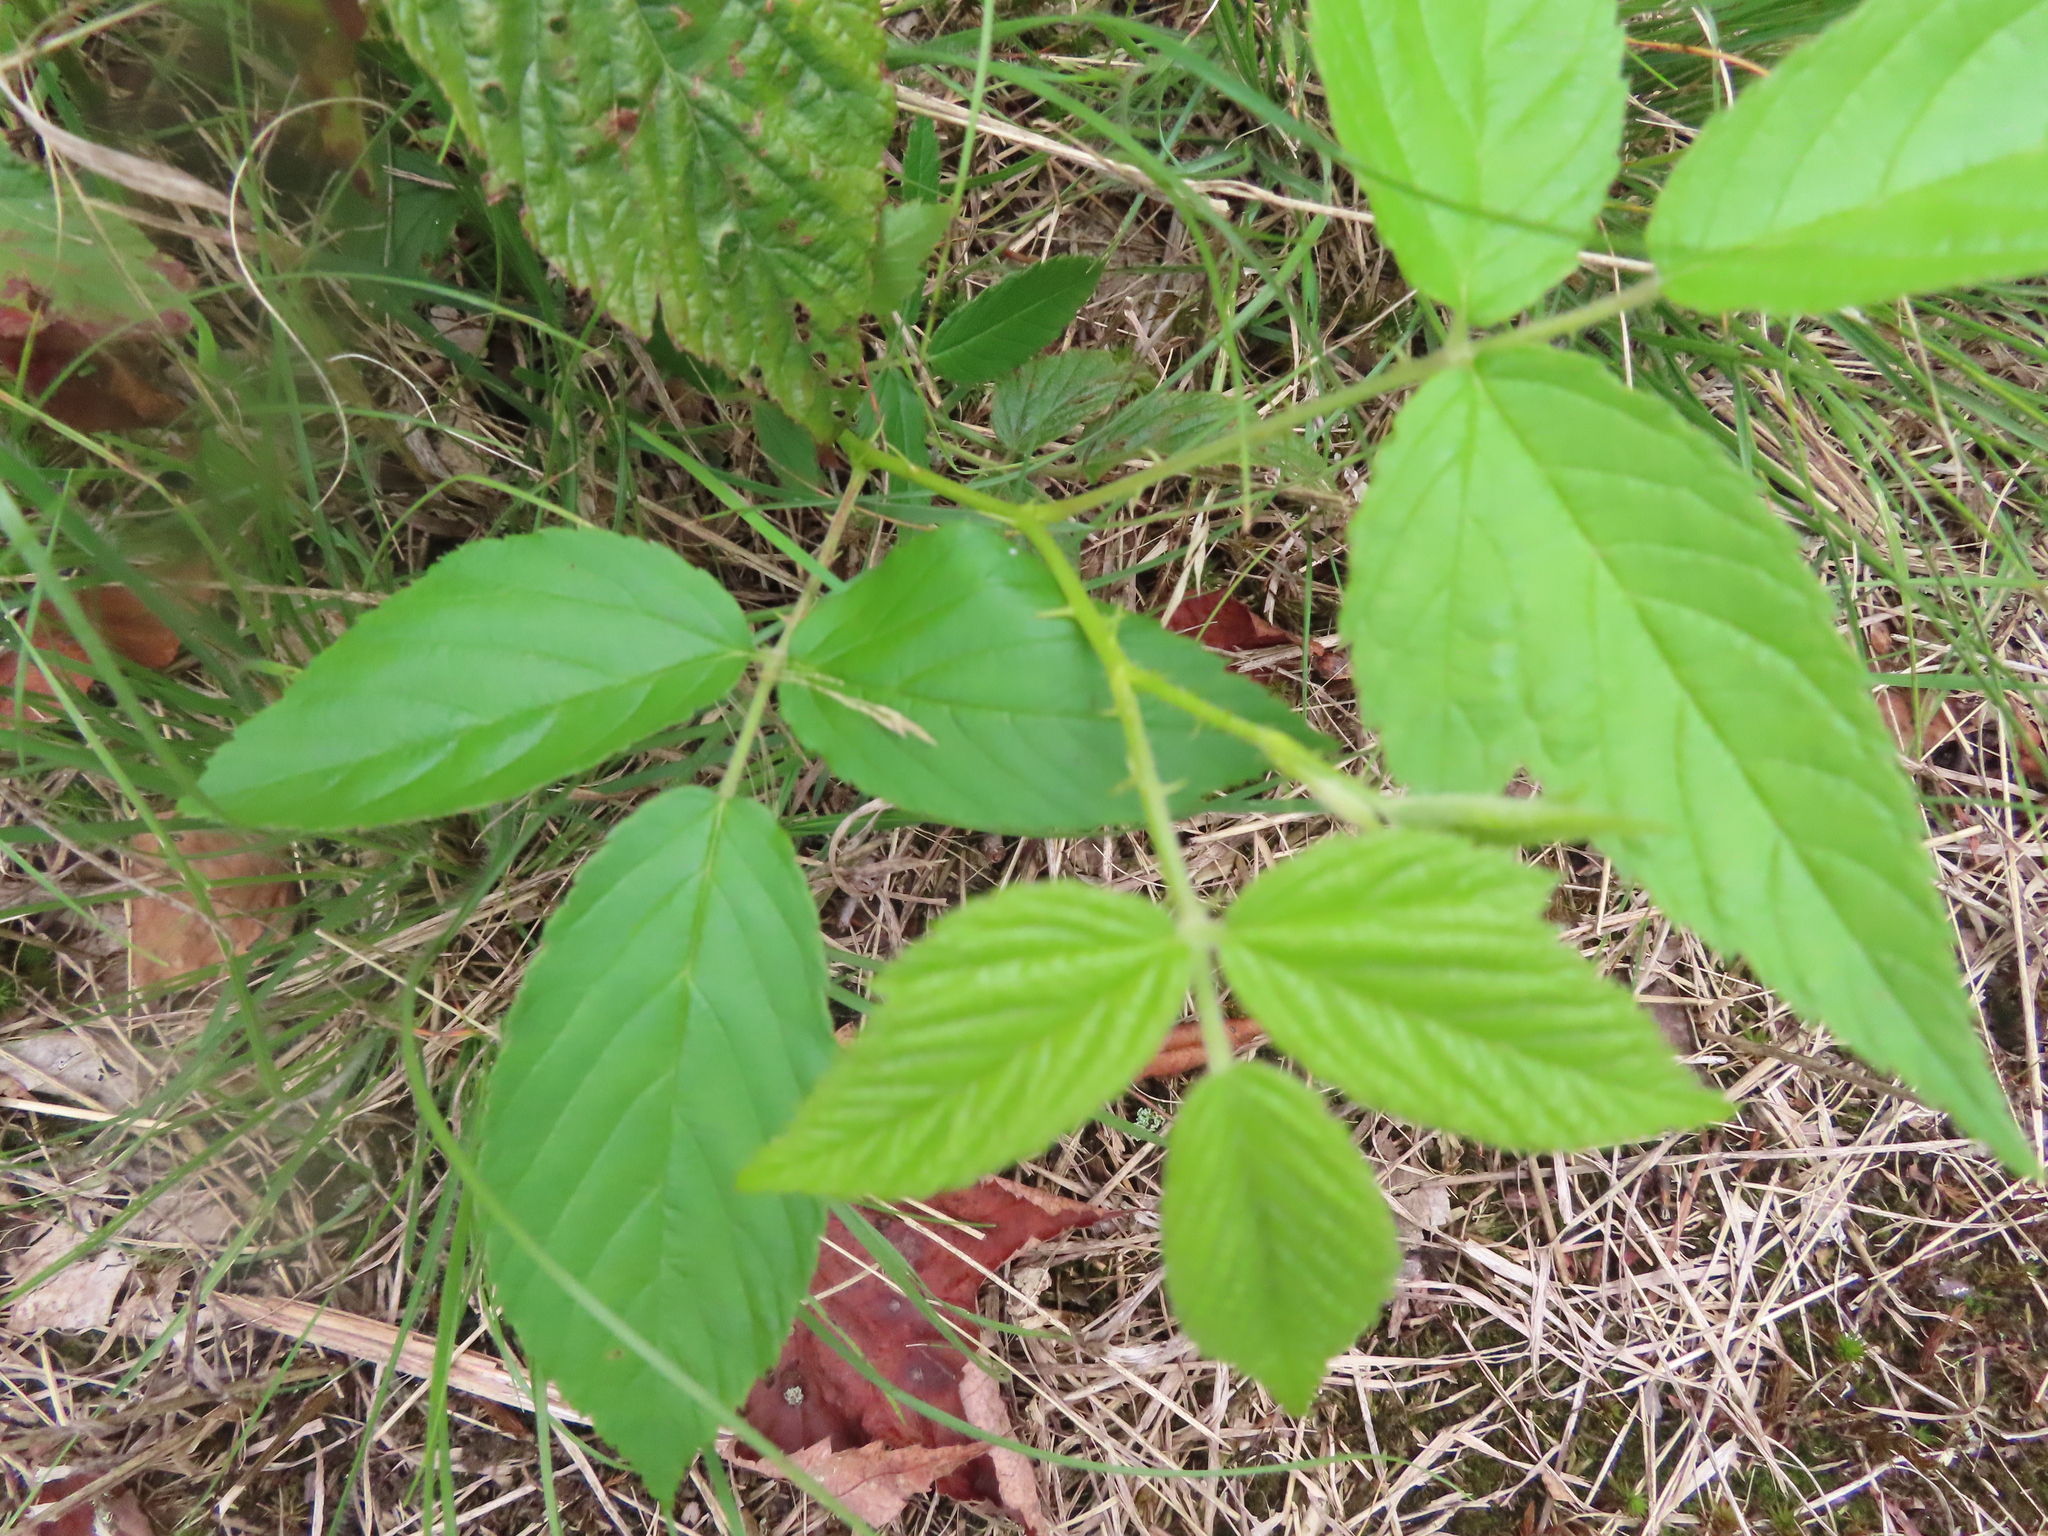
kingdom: Plantae
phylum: Tracheophyta
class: Magnoliopsida
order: Rosales
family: Rosaceae
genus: Rubus
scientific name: Rubus allegheniensis
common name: Allegheny blackberry
